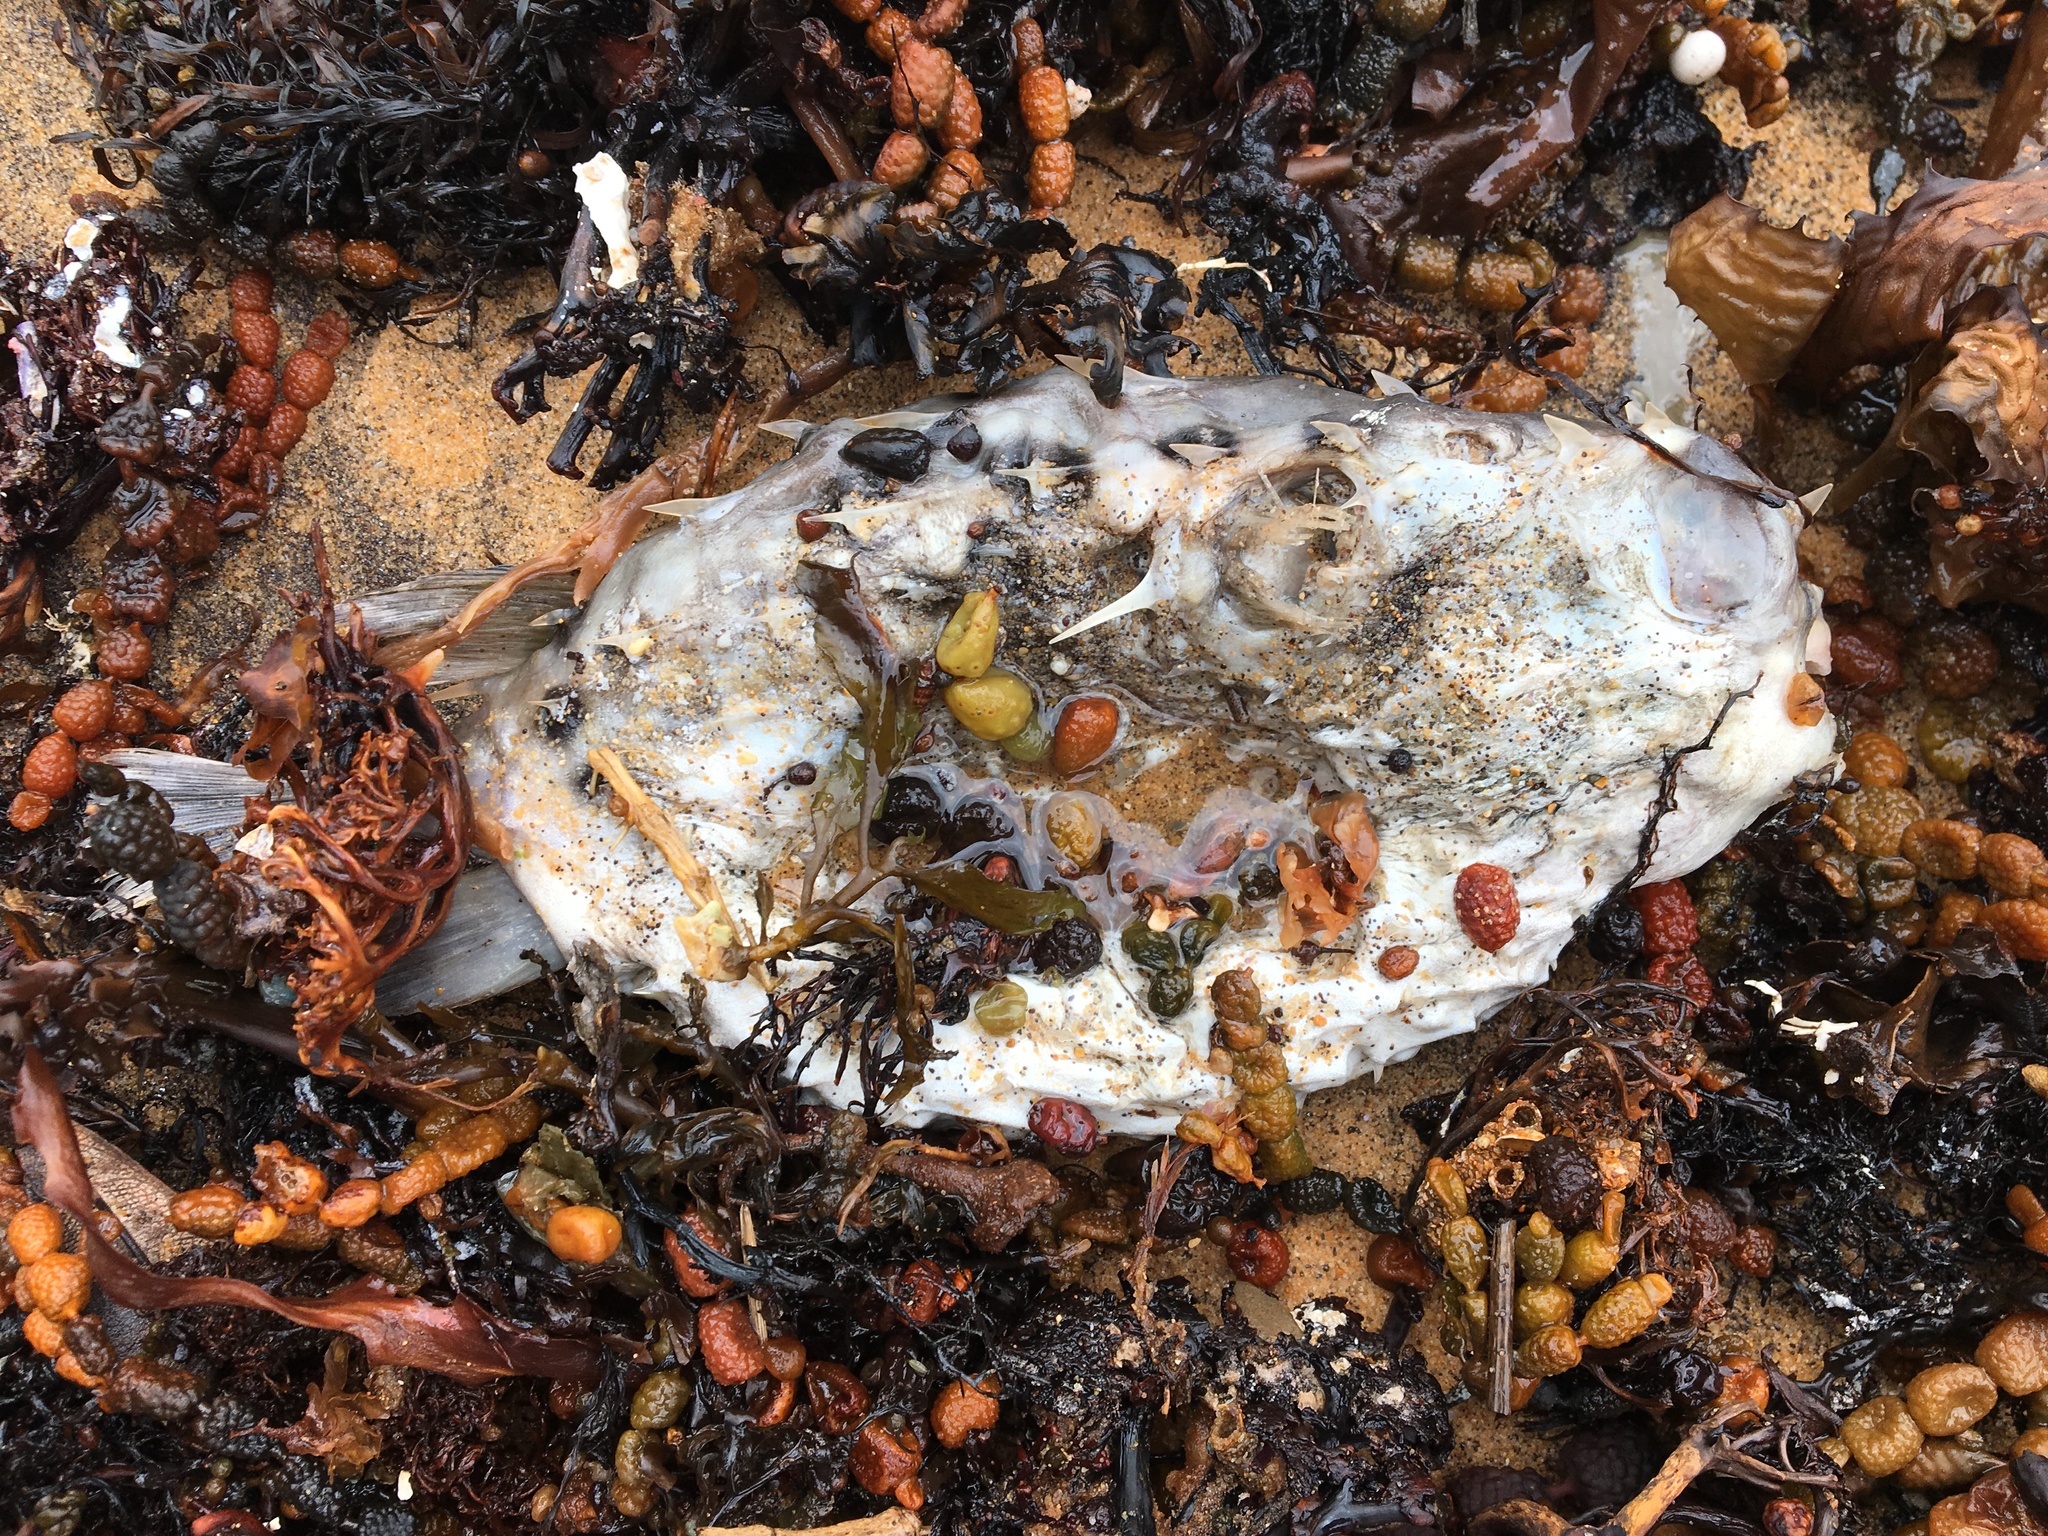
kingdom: Animalia
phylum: Chordata
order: Tetraodontiformes
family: Diodontidae
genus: Allomycterus
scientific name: Allomycterus pilatus
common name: No common name
